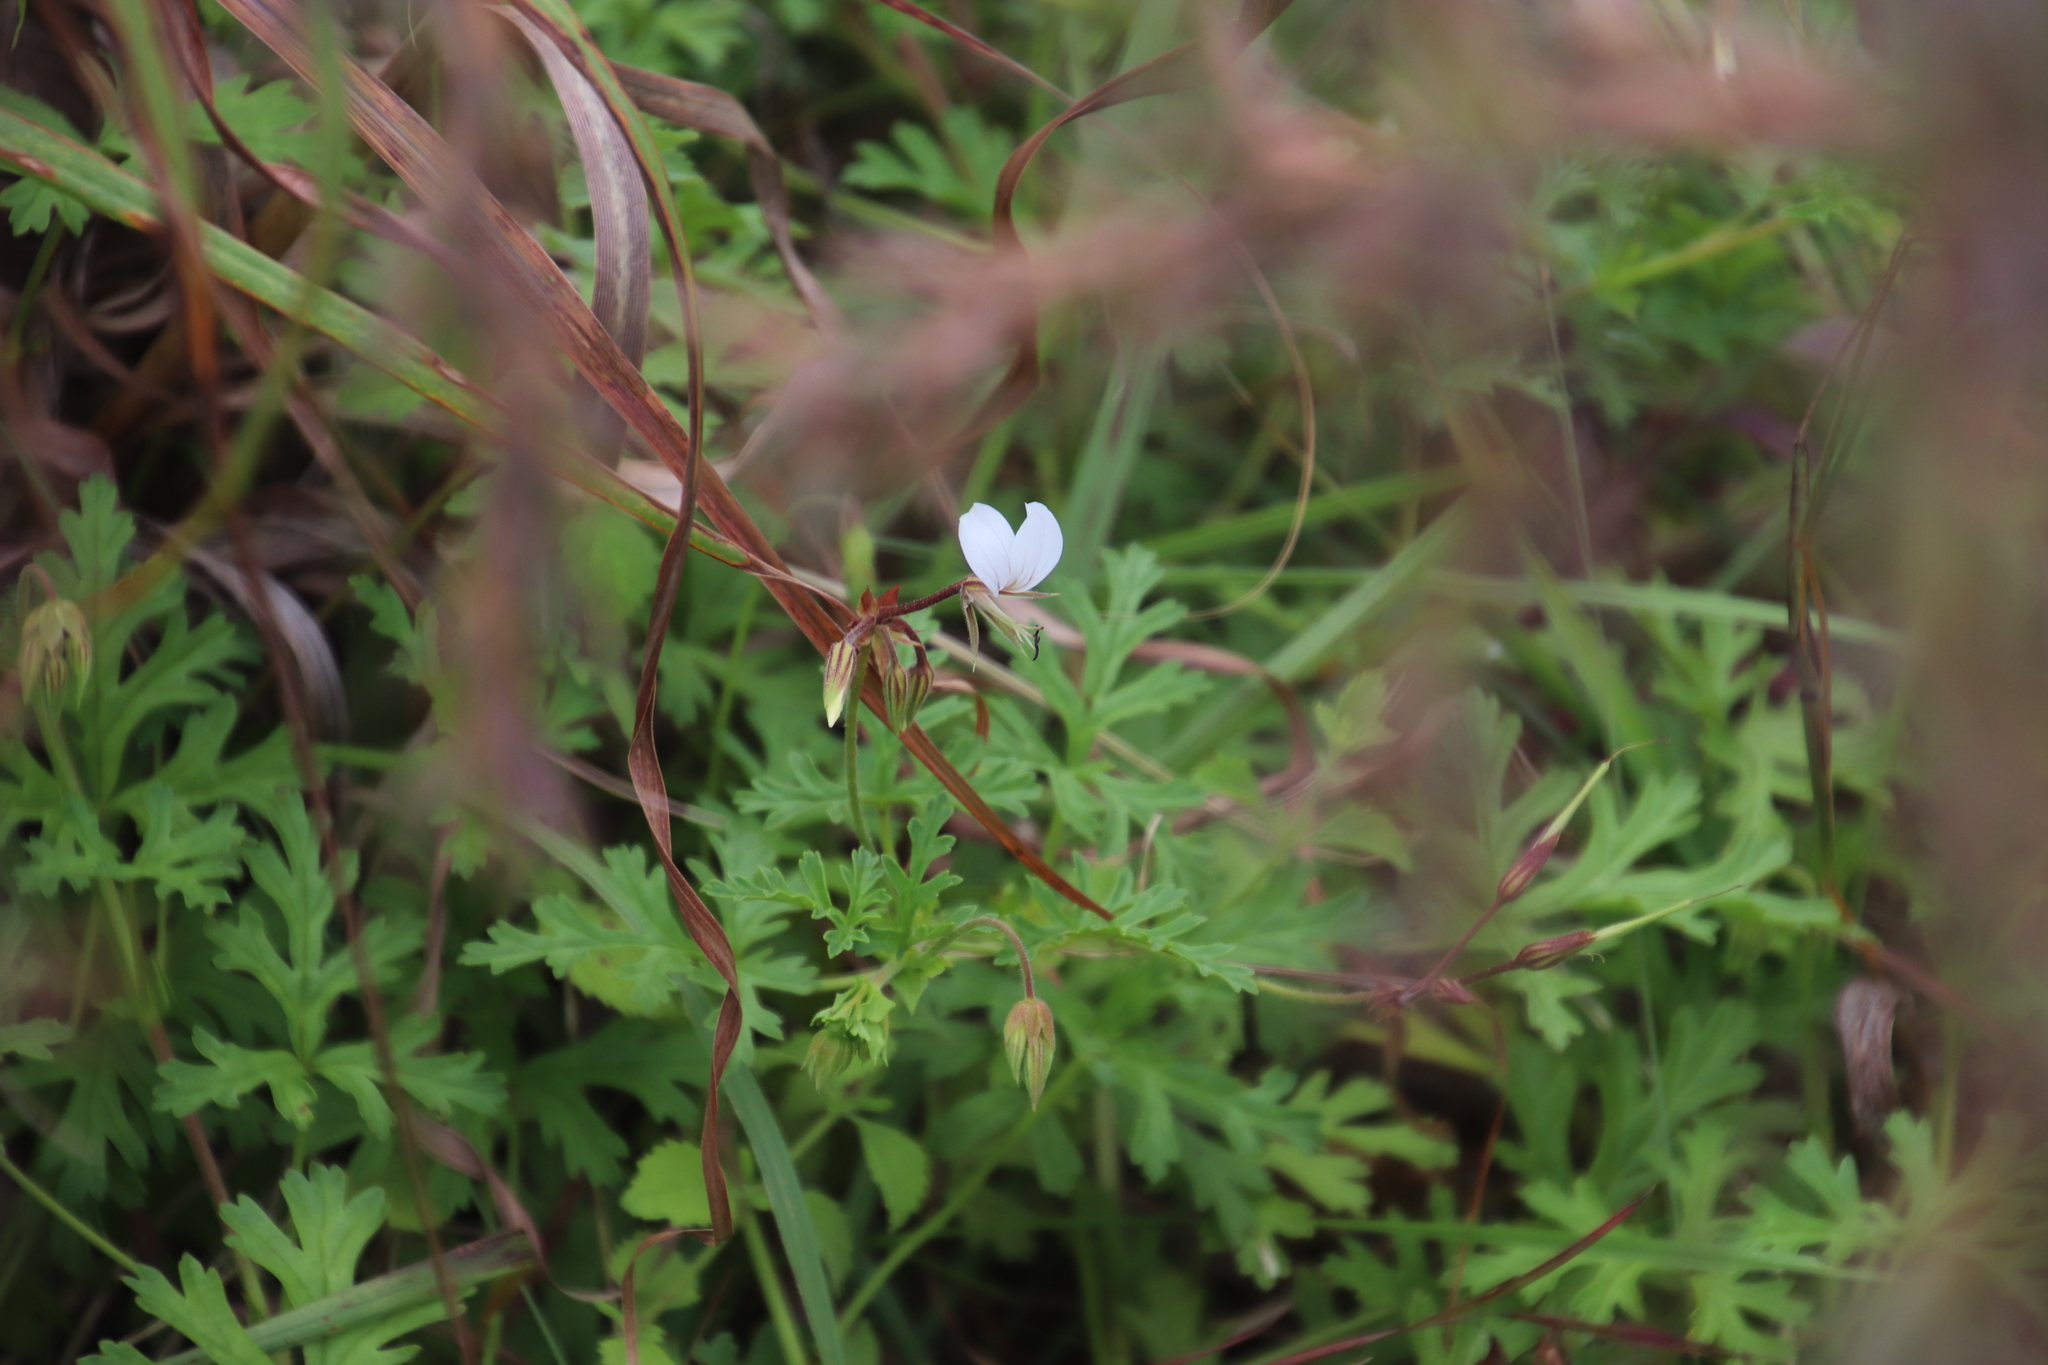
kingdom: Plantae
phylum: Tracheophyta
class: Magnoliopsida
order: Geraniales
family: Geraniaceae
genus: Pelargonium
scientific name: Pelargonium multicaule
